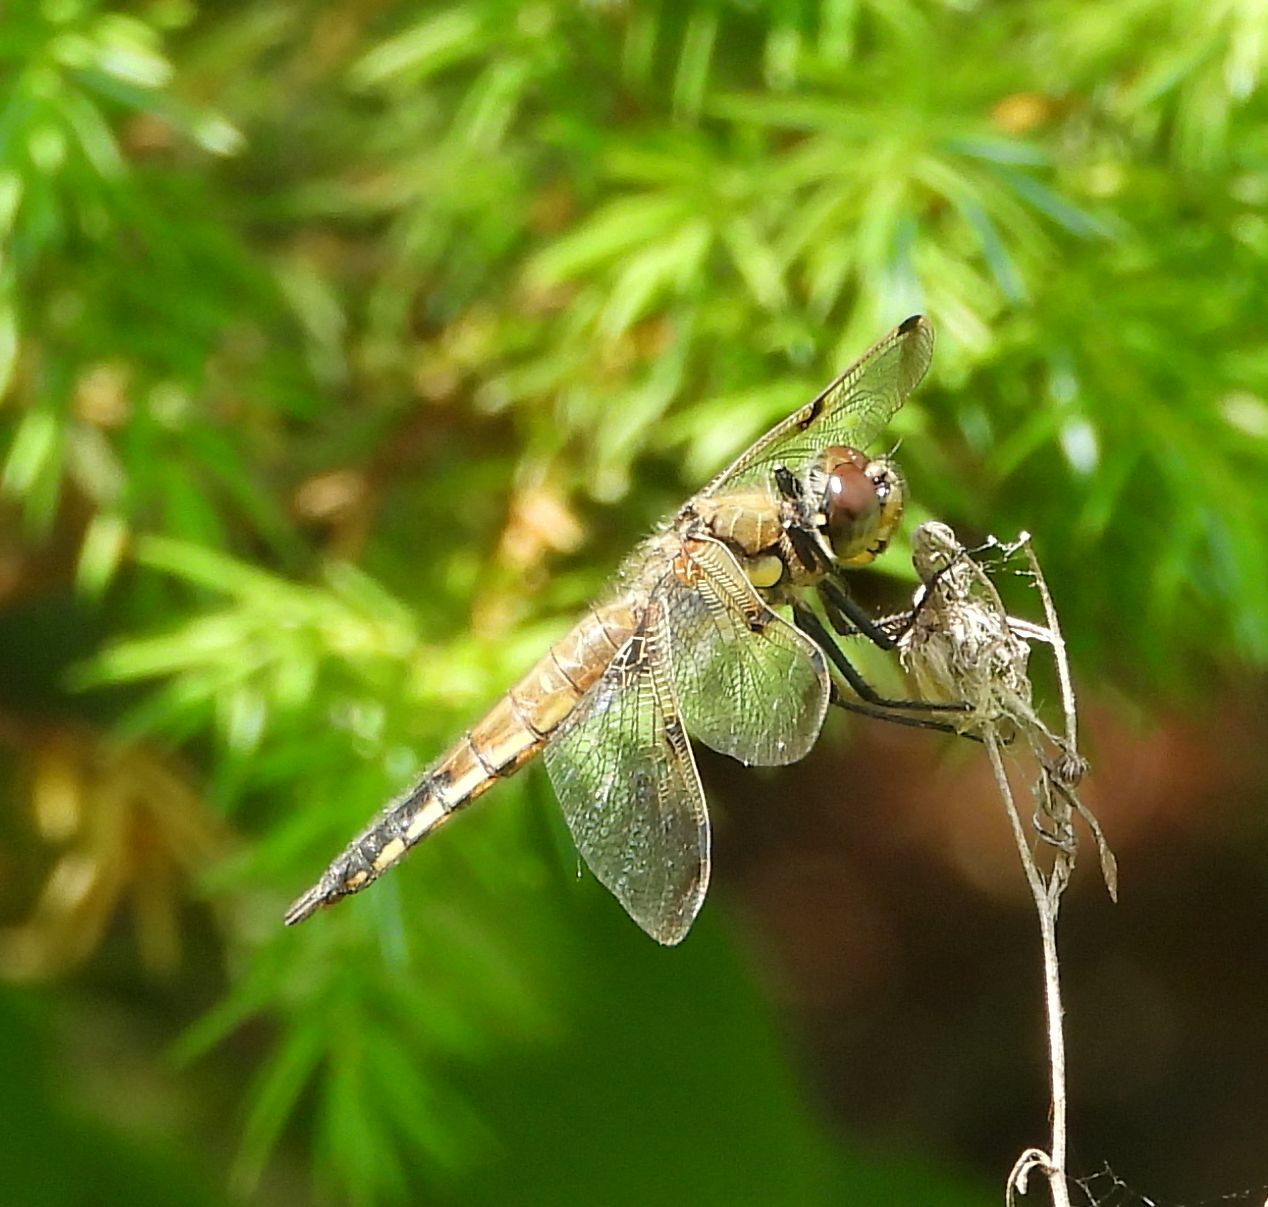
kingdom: Animalia
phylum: Arthropoda
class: Insecta
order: Odonata
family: Libellulidae
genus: Libellula
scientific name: Libellula quadrimaculata
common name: Four-spotted chaser
